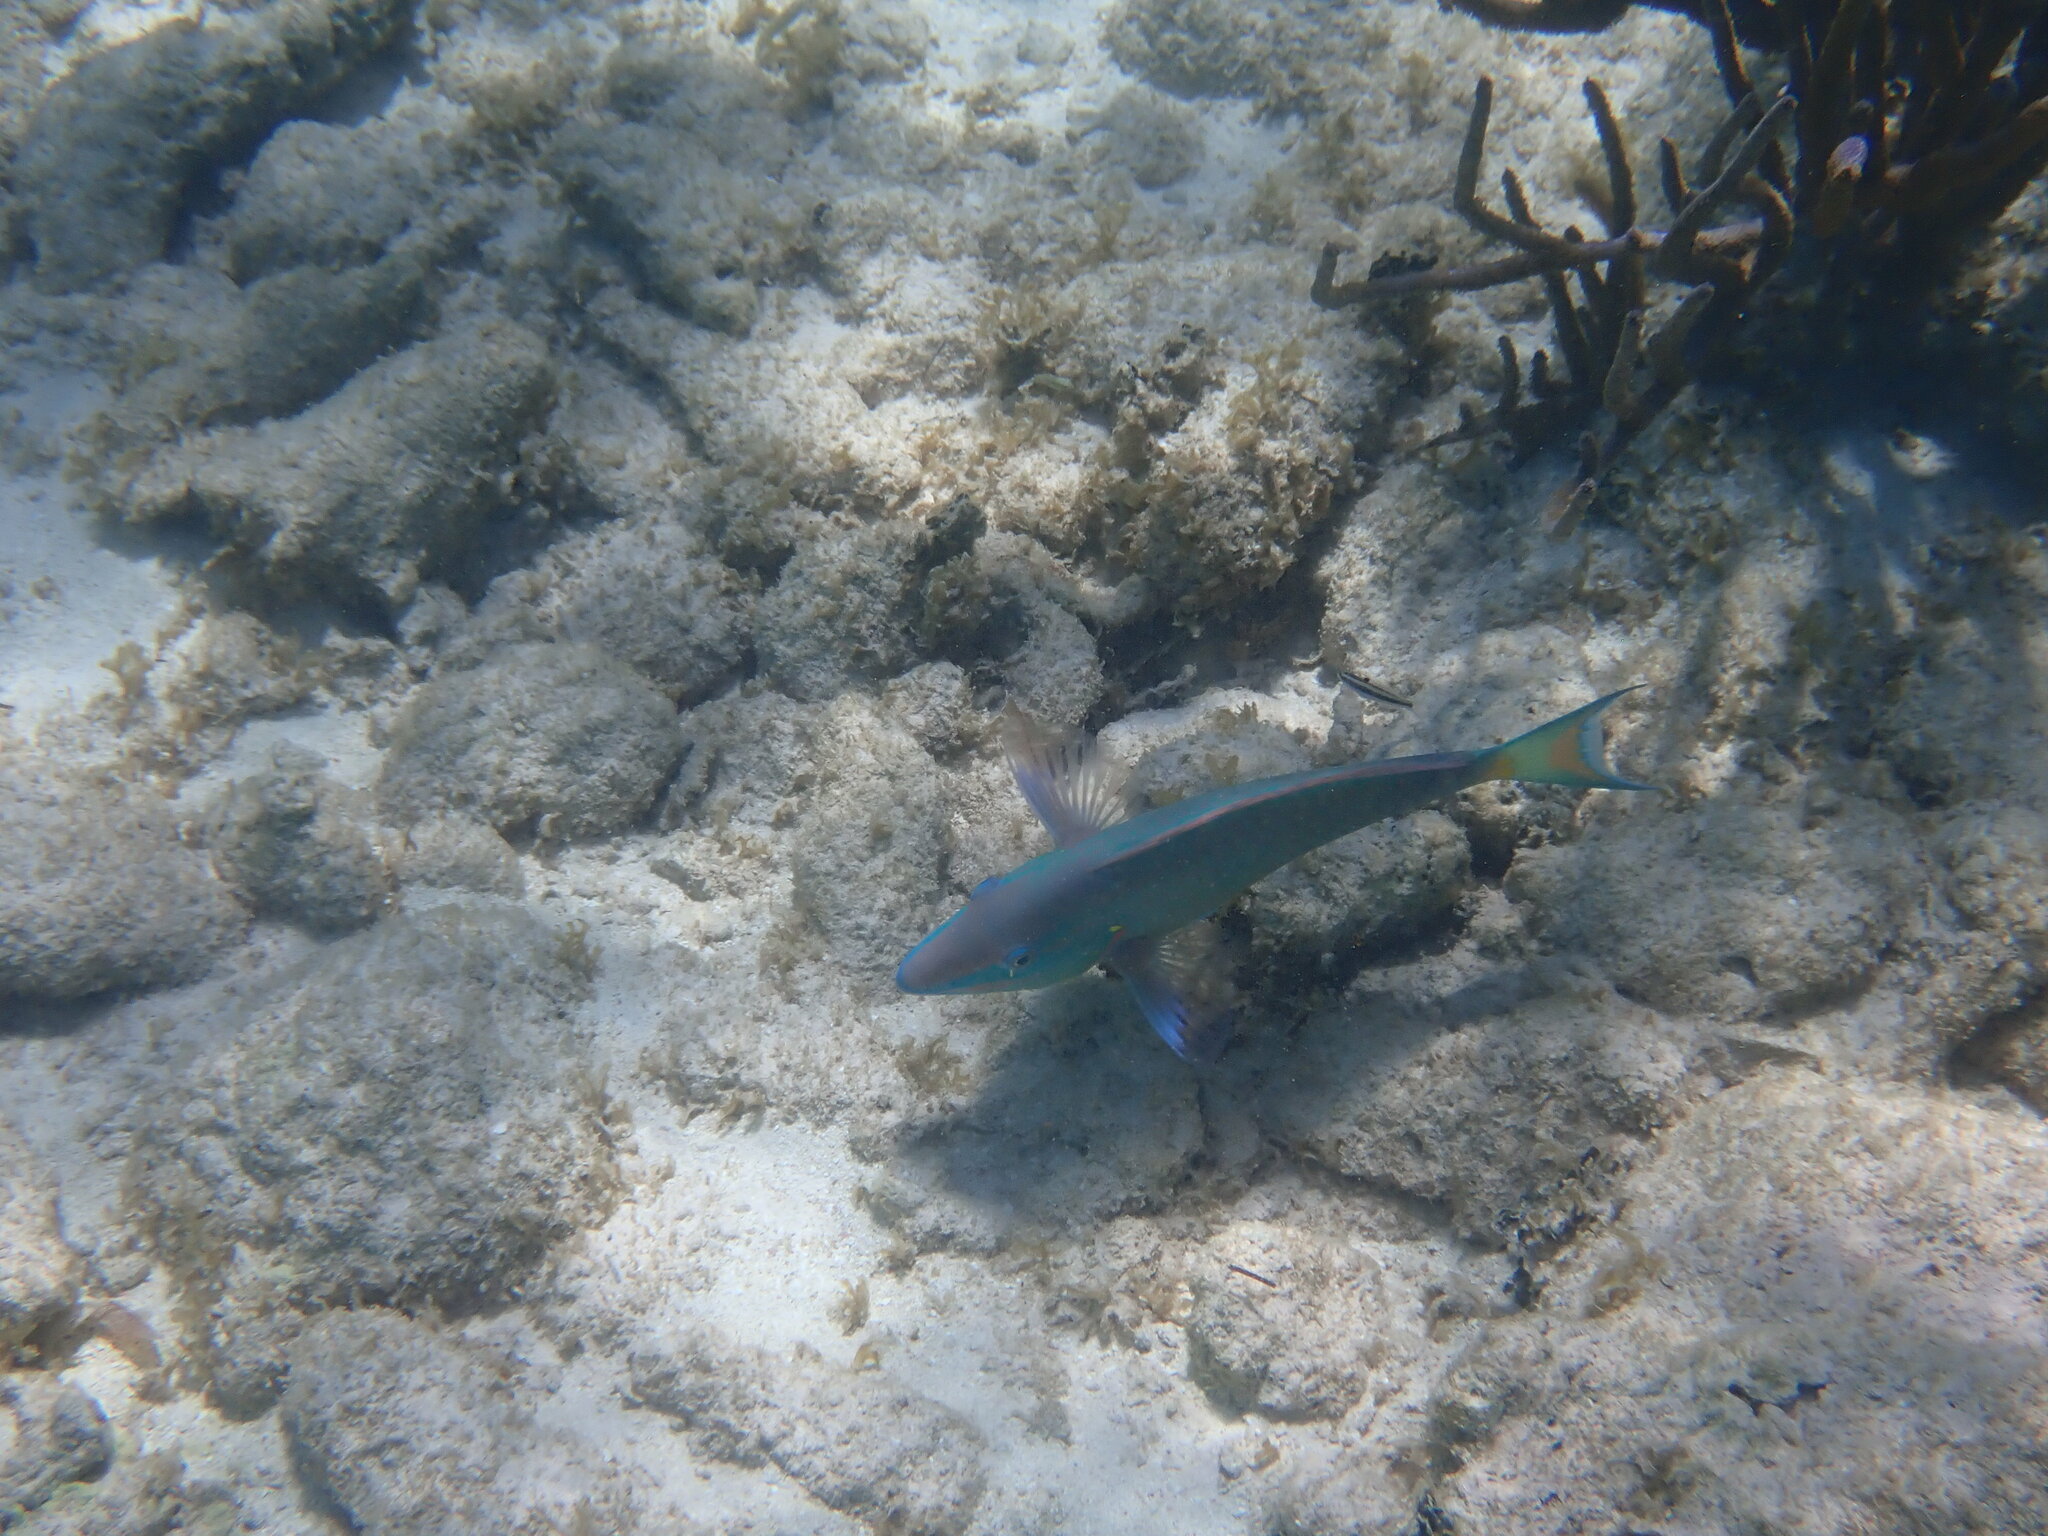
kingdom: Animalia
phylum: Chordata
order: Perciformes
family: Scaridae
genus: Sparisoma
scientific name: Sparisoma viride
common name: Stoplight parrotfish
